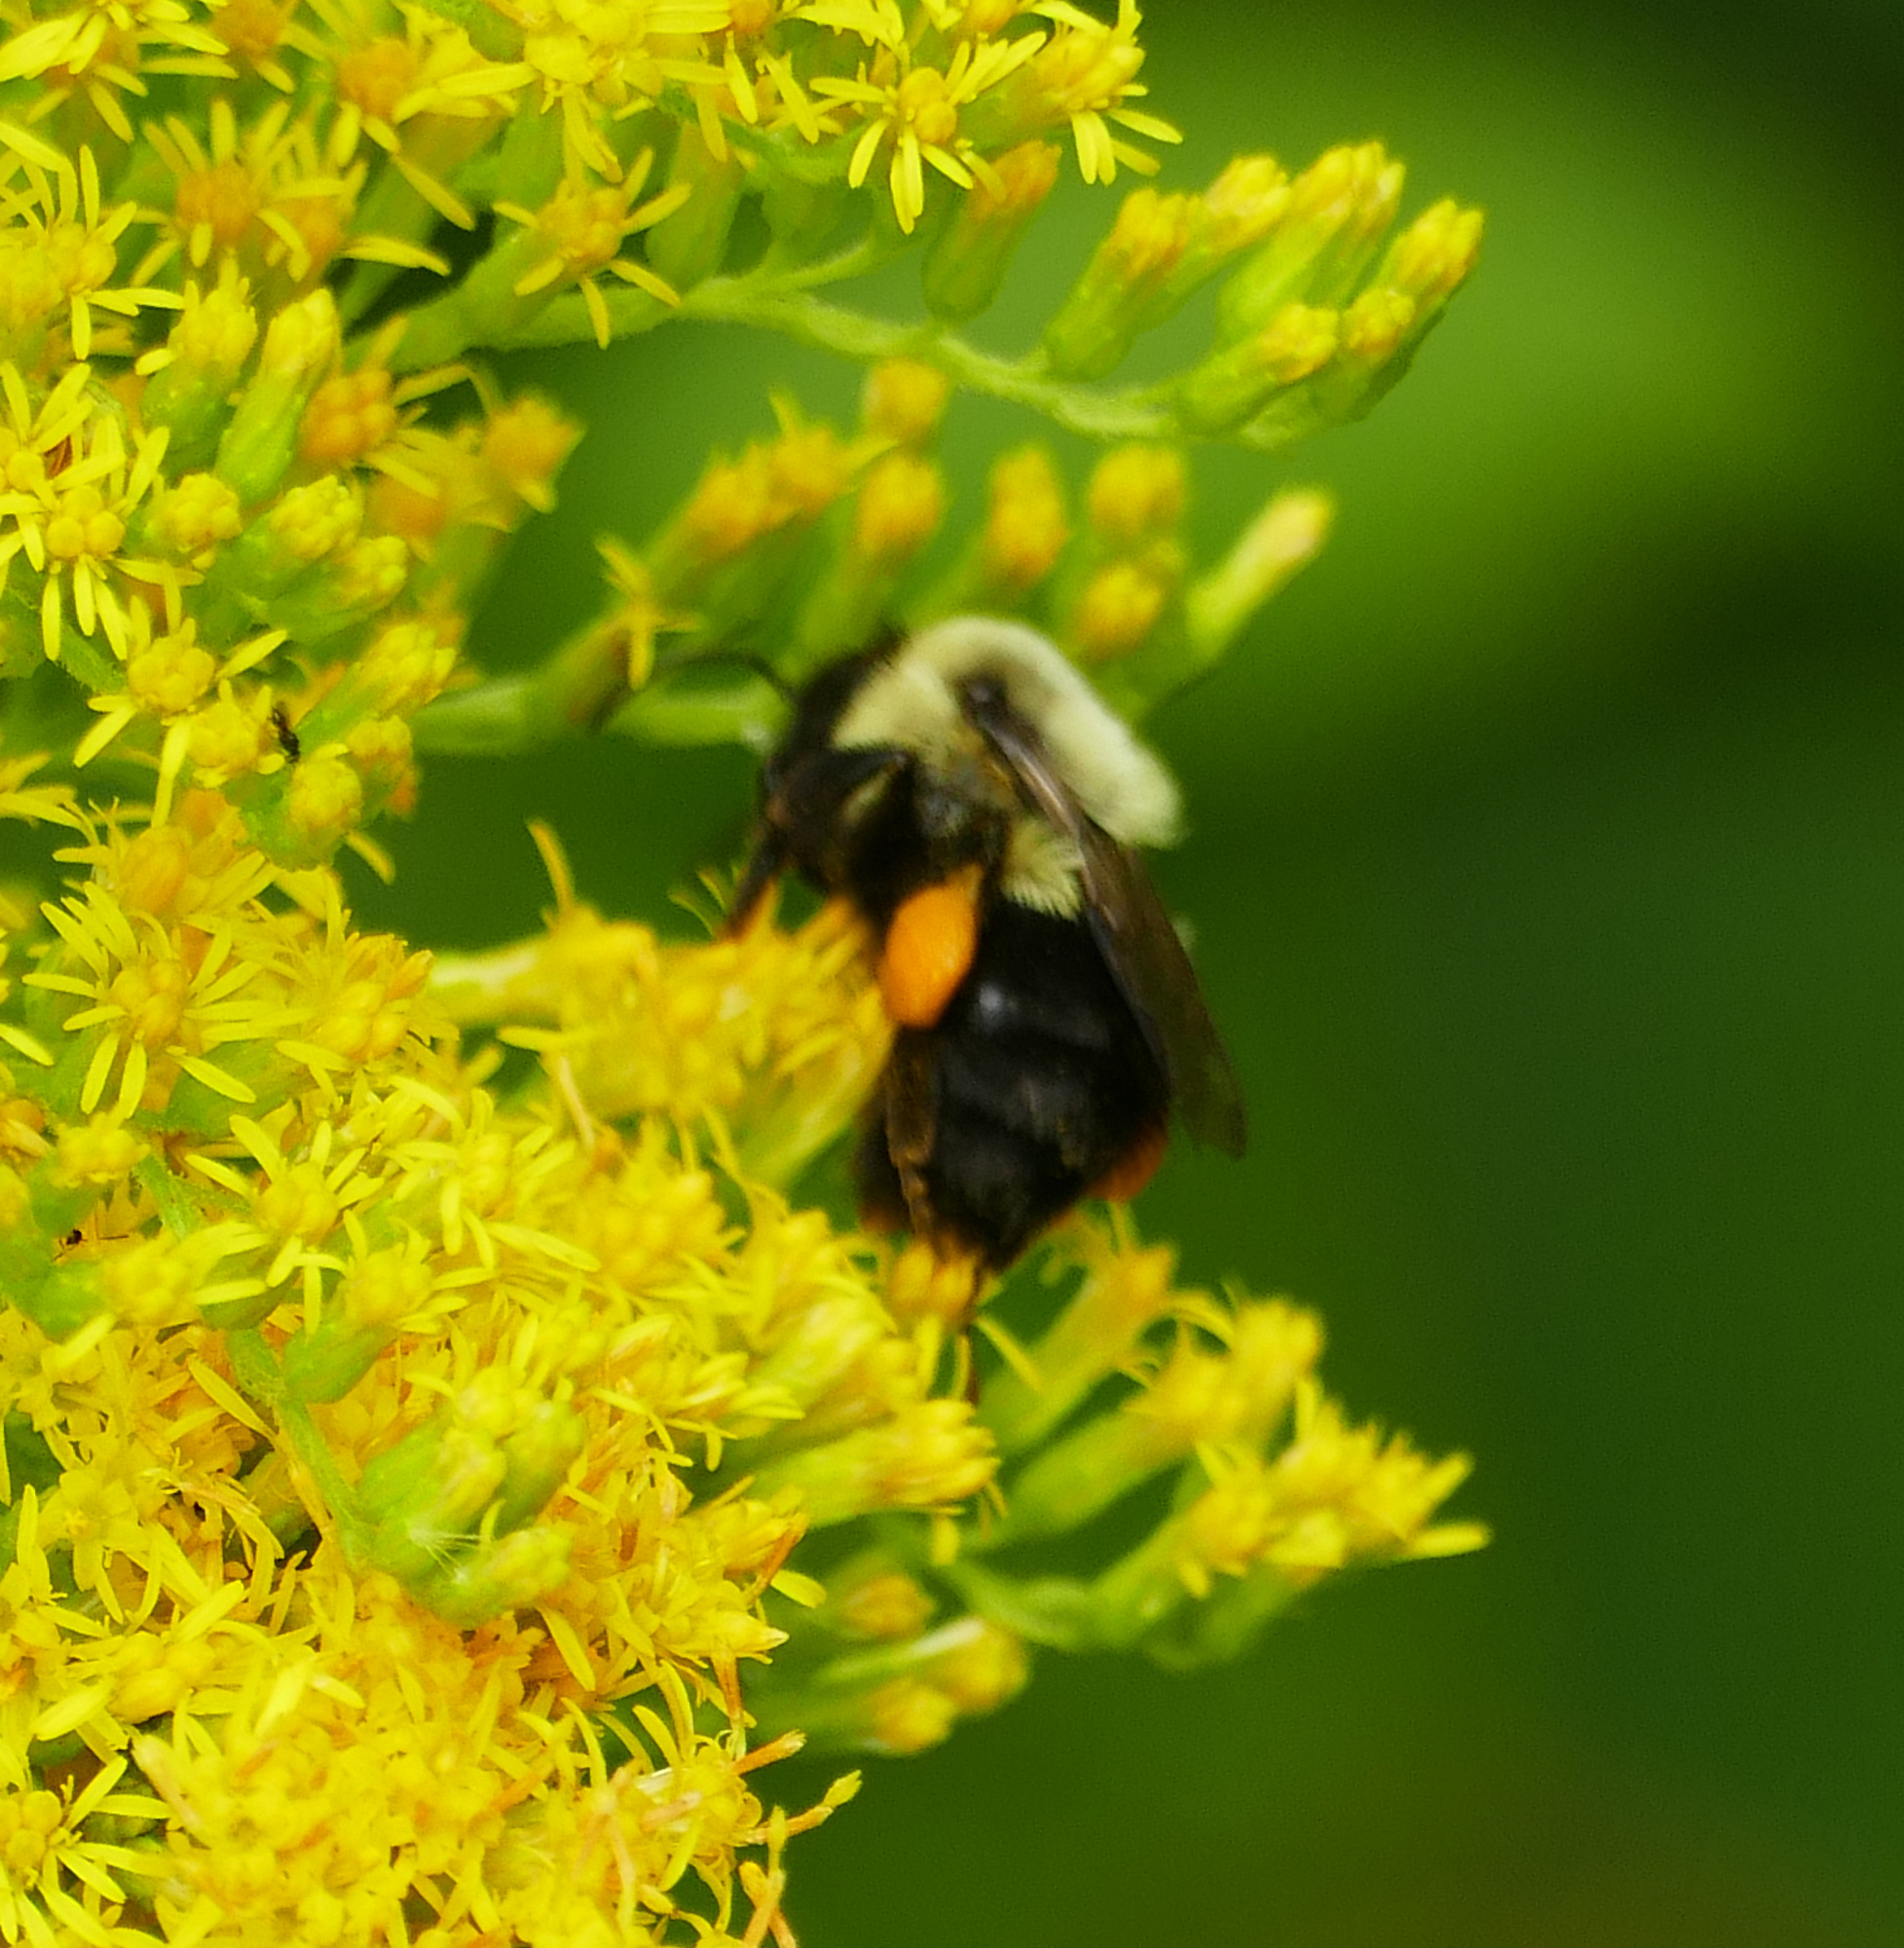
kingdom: Animalia
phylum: Arthropoda
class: Insecta
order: Hymenoptera
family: Apidae
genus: Bombus
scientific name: Bombus impatiens
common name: Common eastern bumble bee
